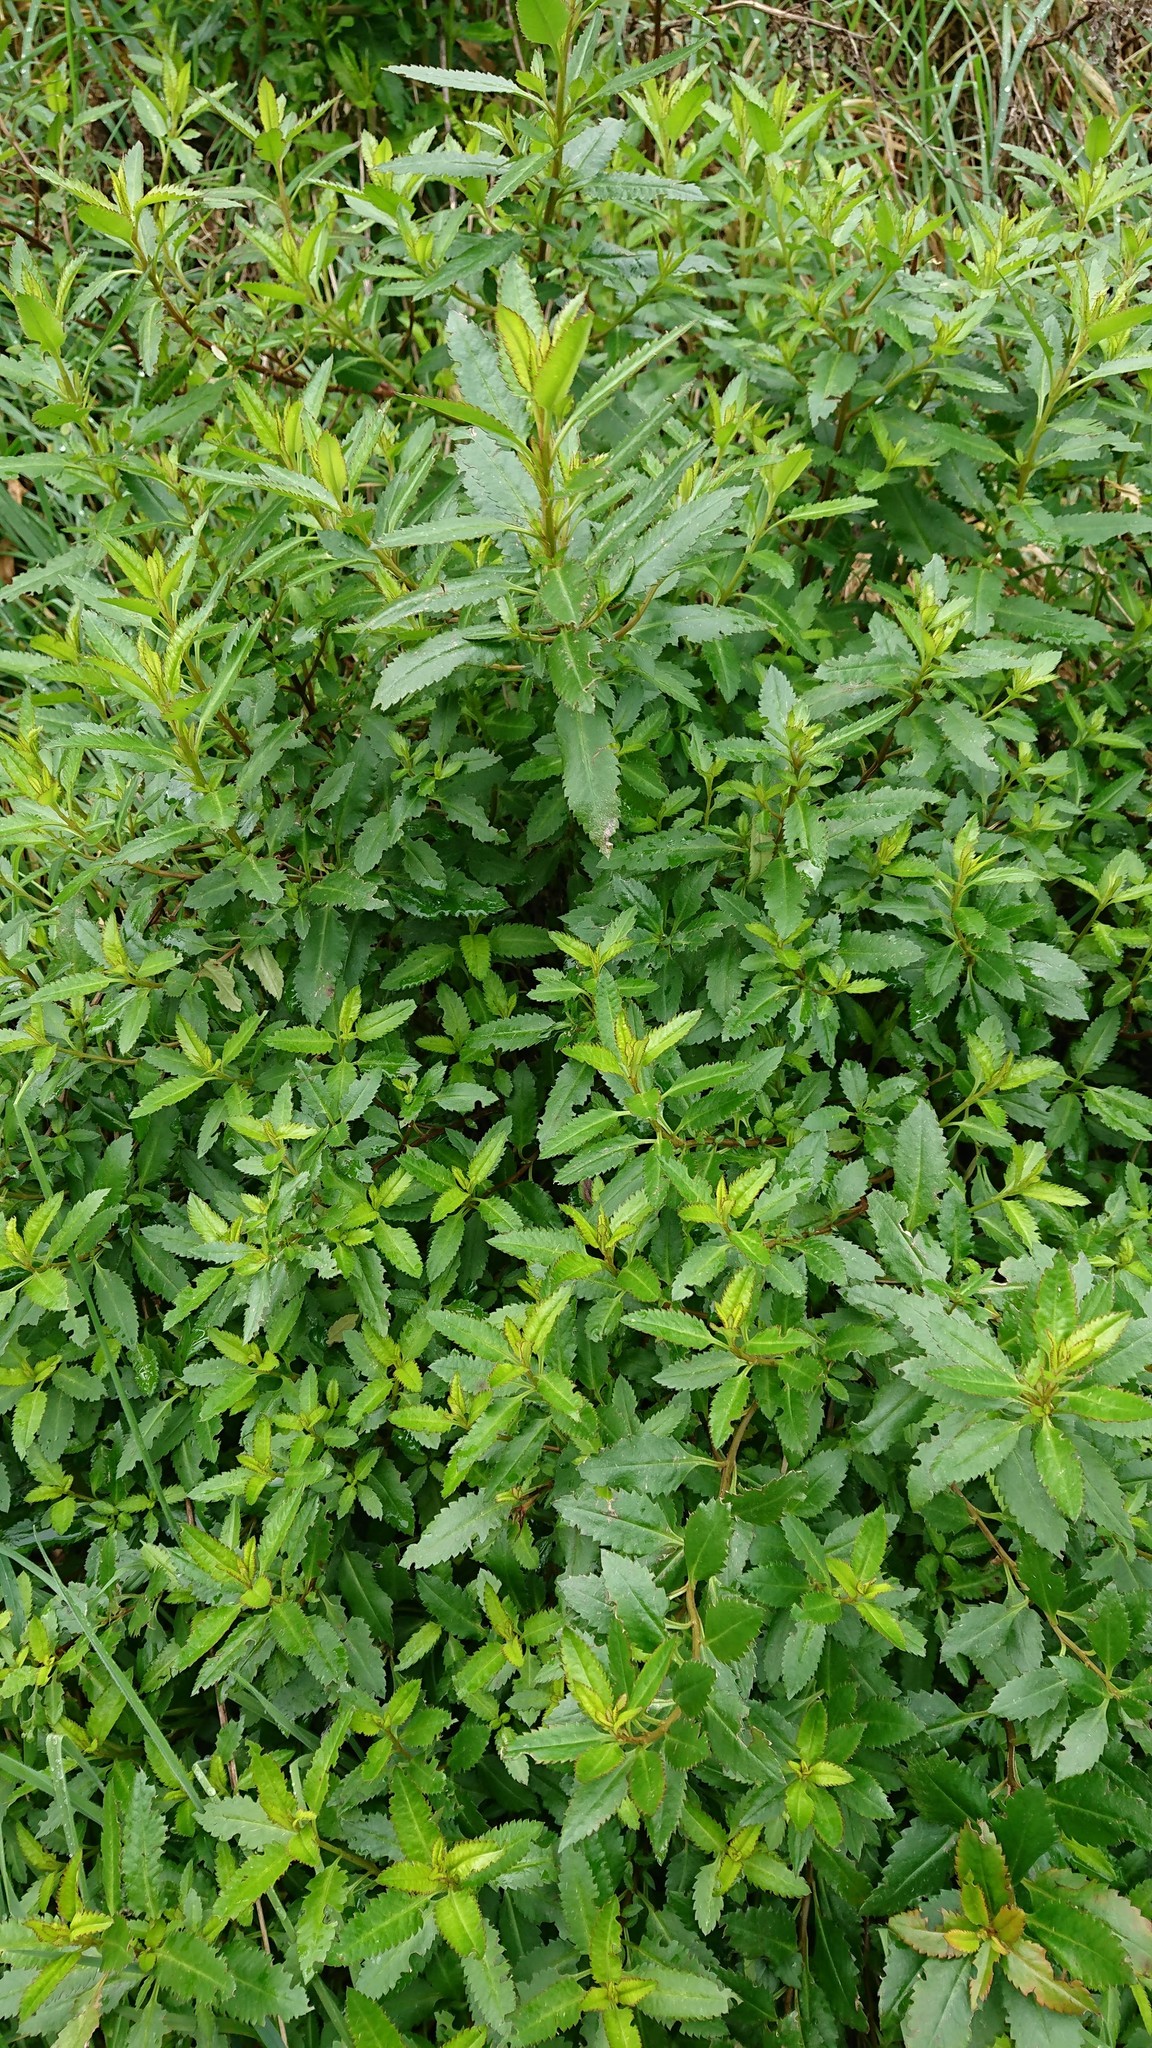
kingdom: Plantae
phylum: Tracheophyta
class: Magnoliopsida
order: Saxifragales
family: Haloragaceae
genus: Haloragis
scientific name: Haloragis erecta
